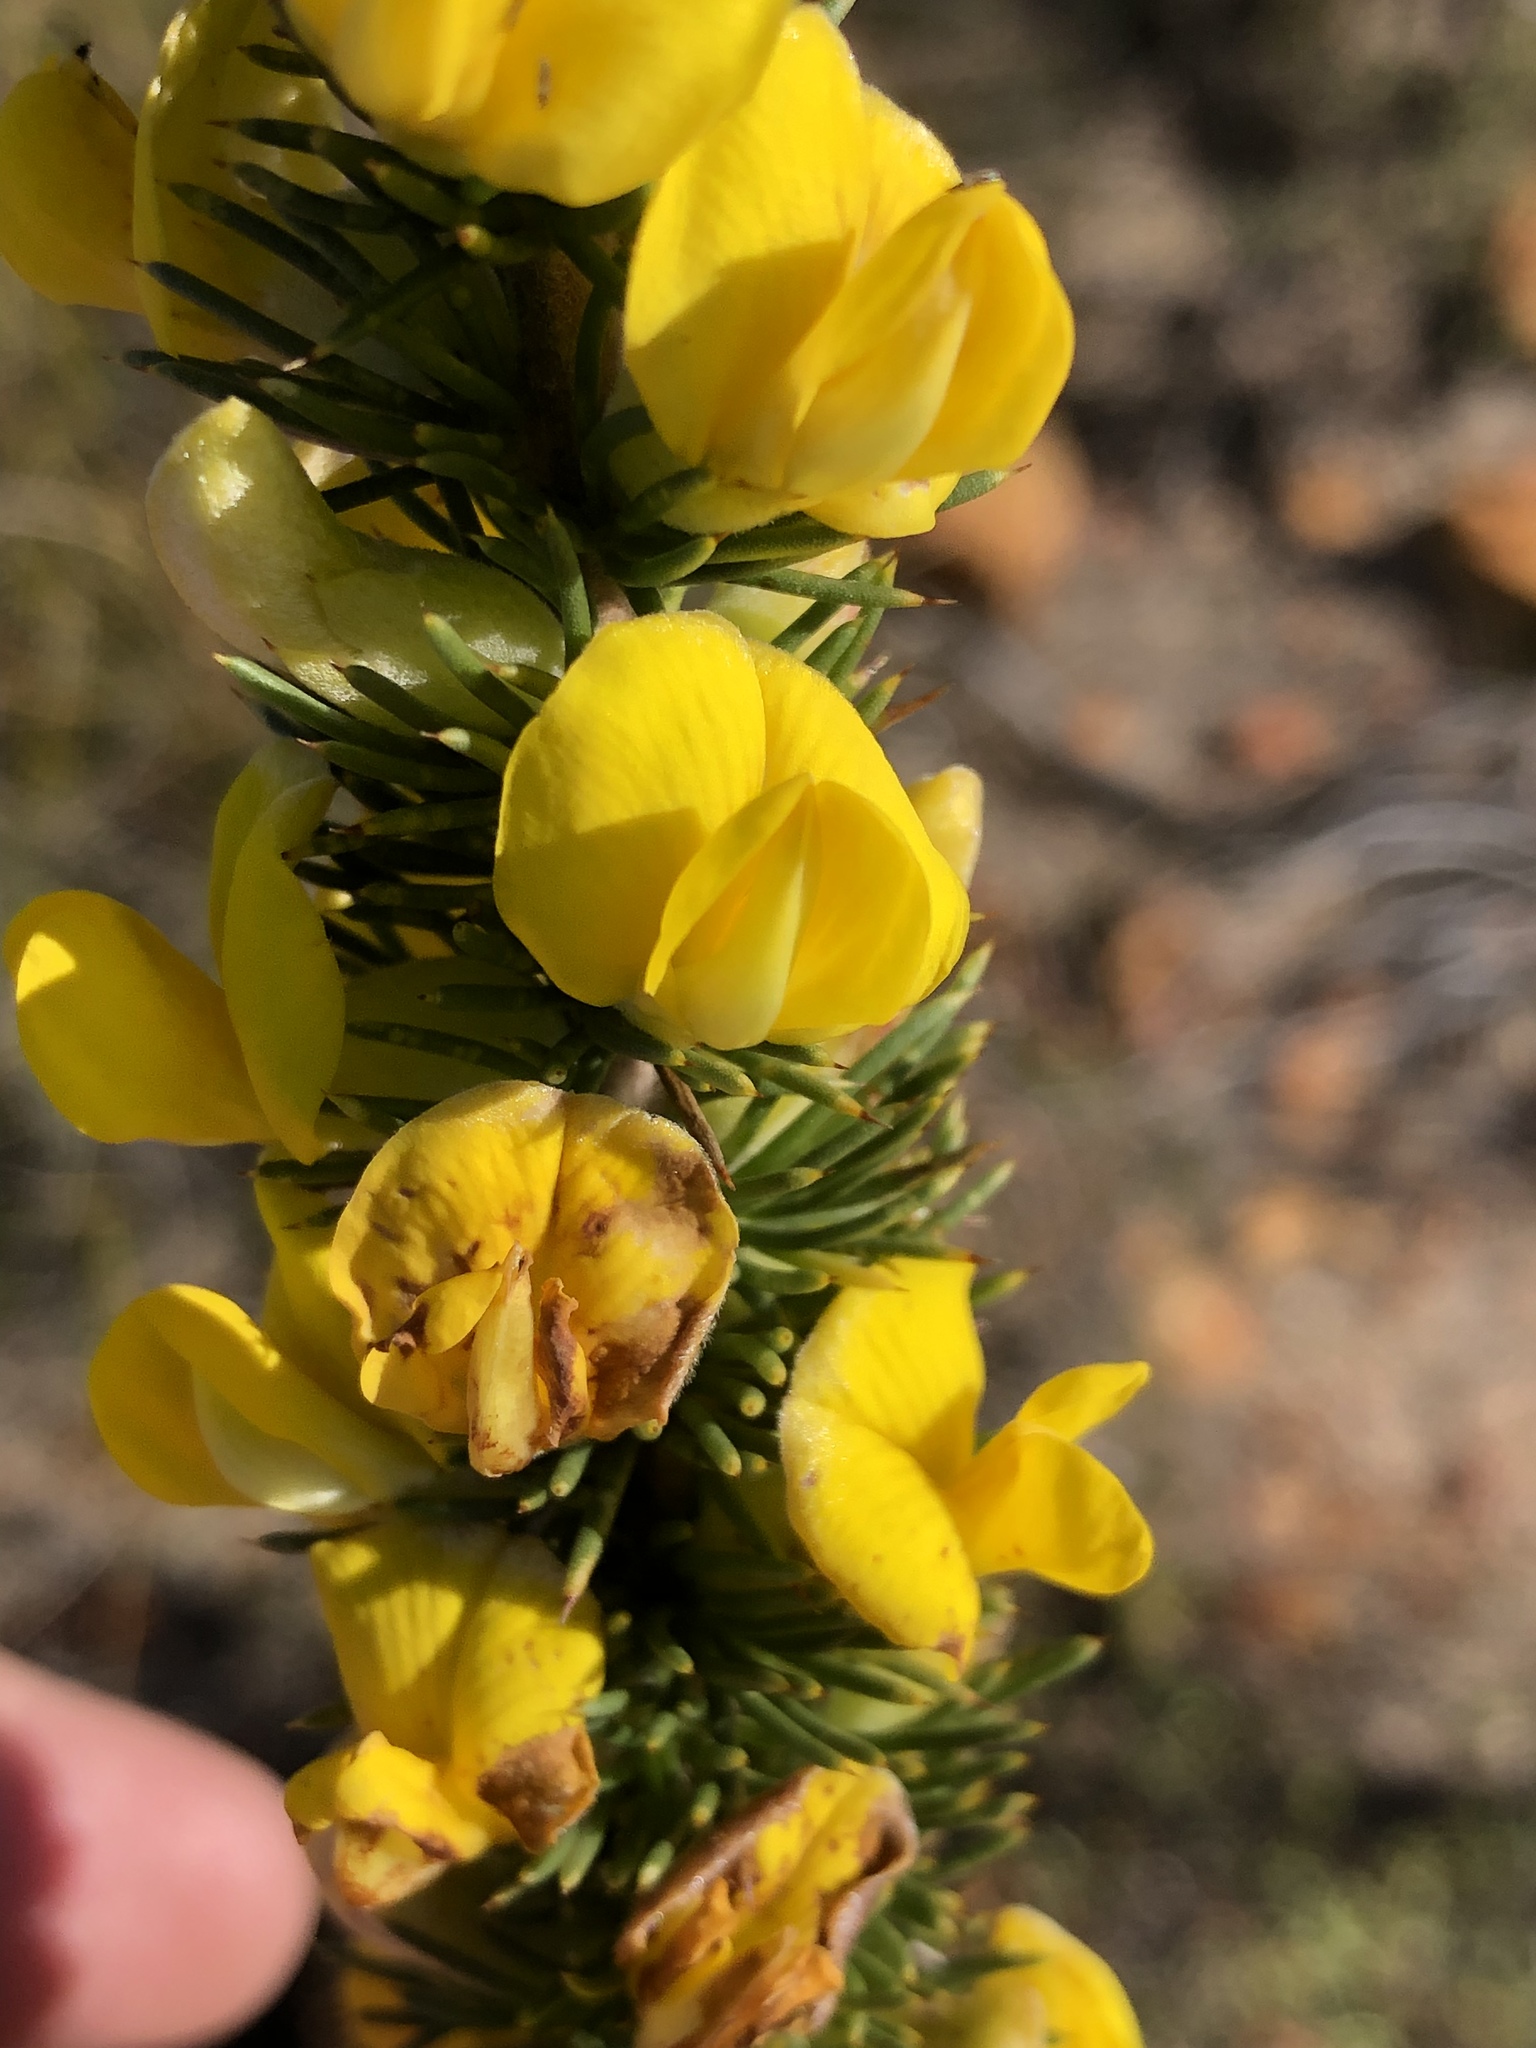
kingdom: Plantae
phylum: Tracheophyta
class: Magnoliopsida
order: Fabales
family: Fabaceae
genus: Aspalathus
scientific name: Aspalathus sceptrumaureum
